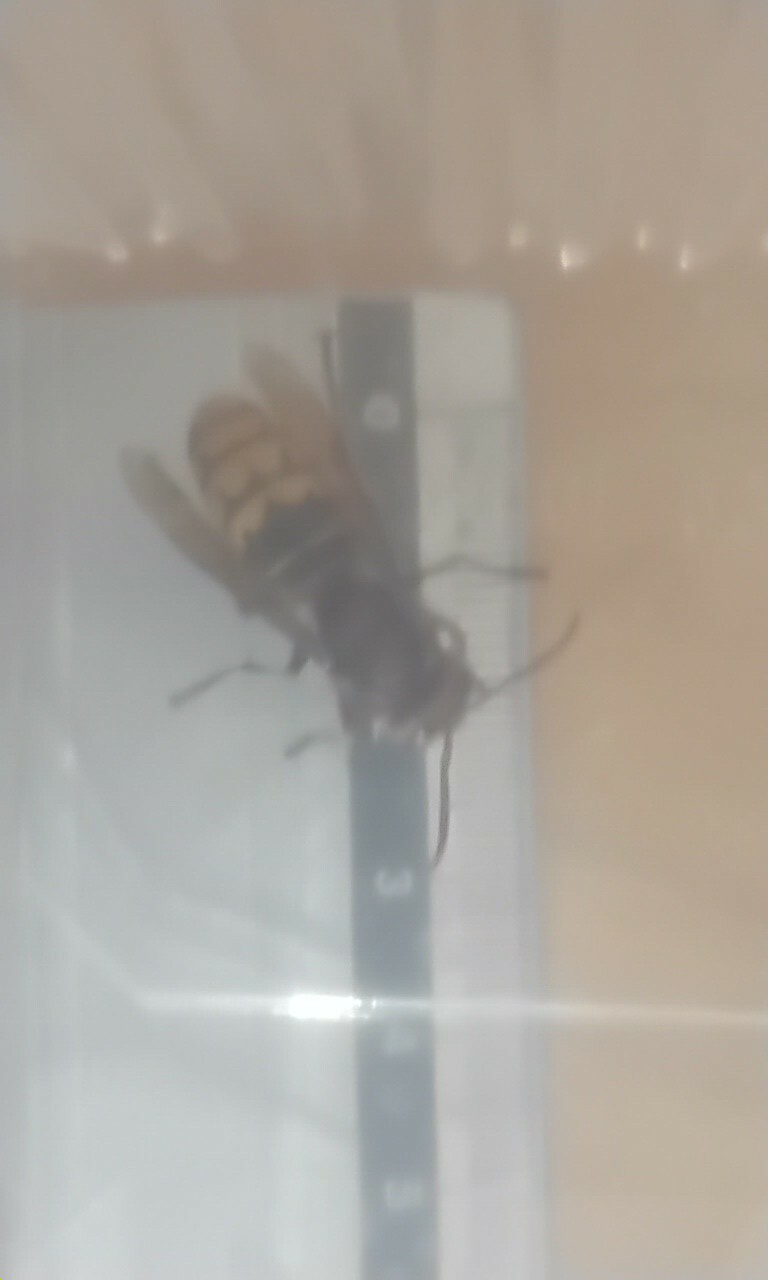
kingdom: Animalia
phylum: Arthropoda
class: Insecta
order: Hymenoptera
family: Vespidae
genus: Vespa
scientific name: Vespa crabro
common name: Hornet
